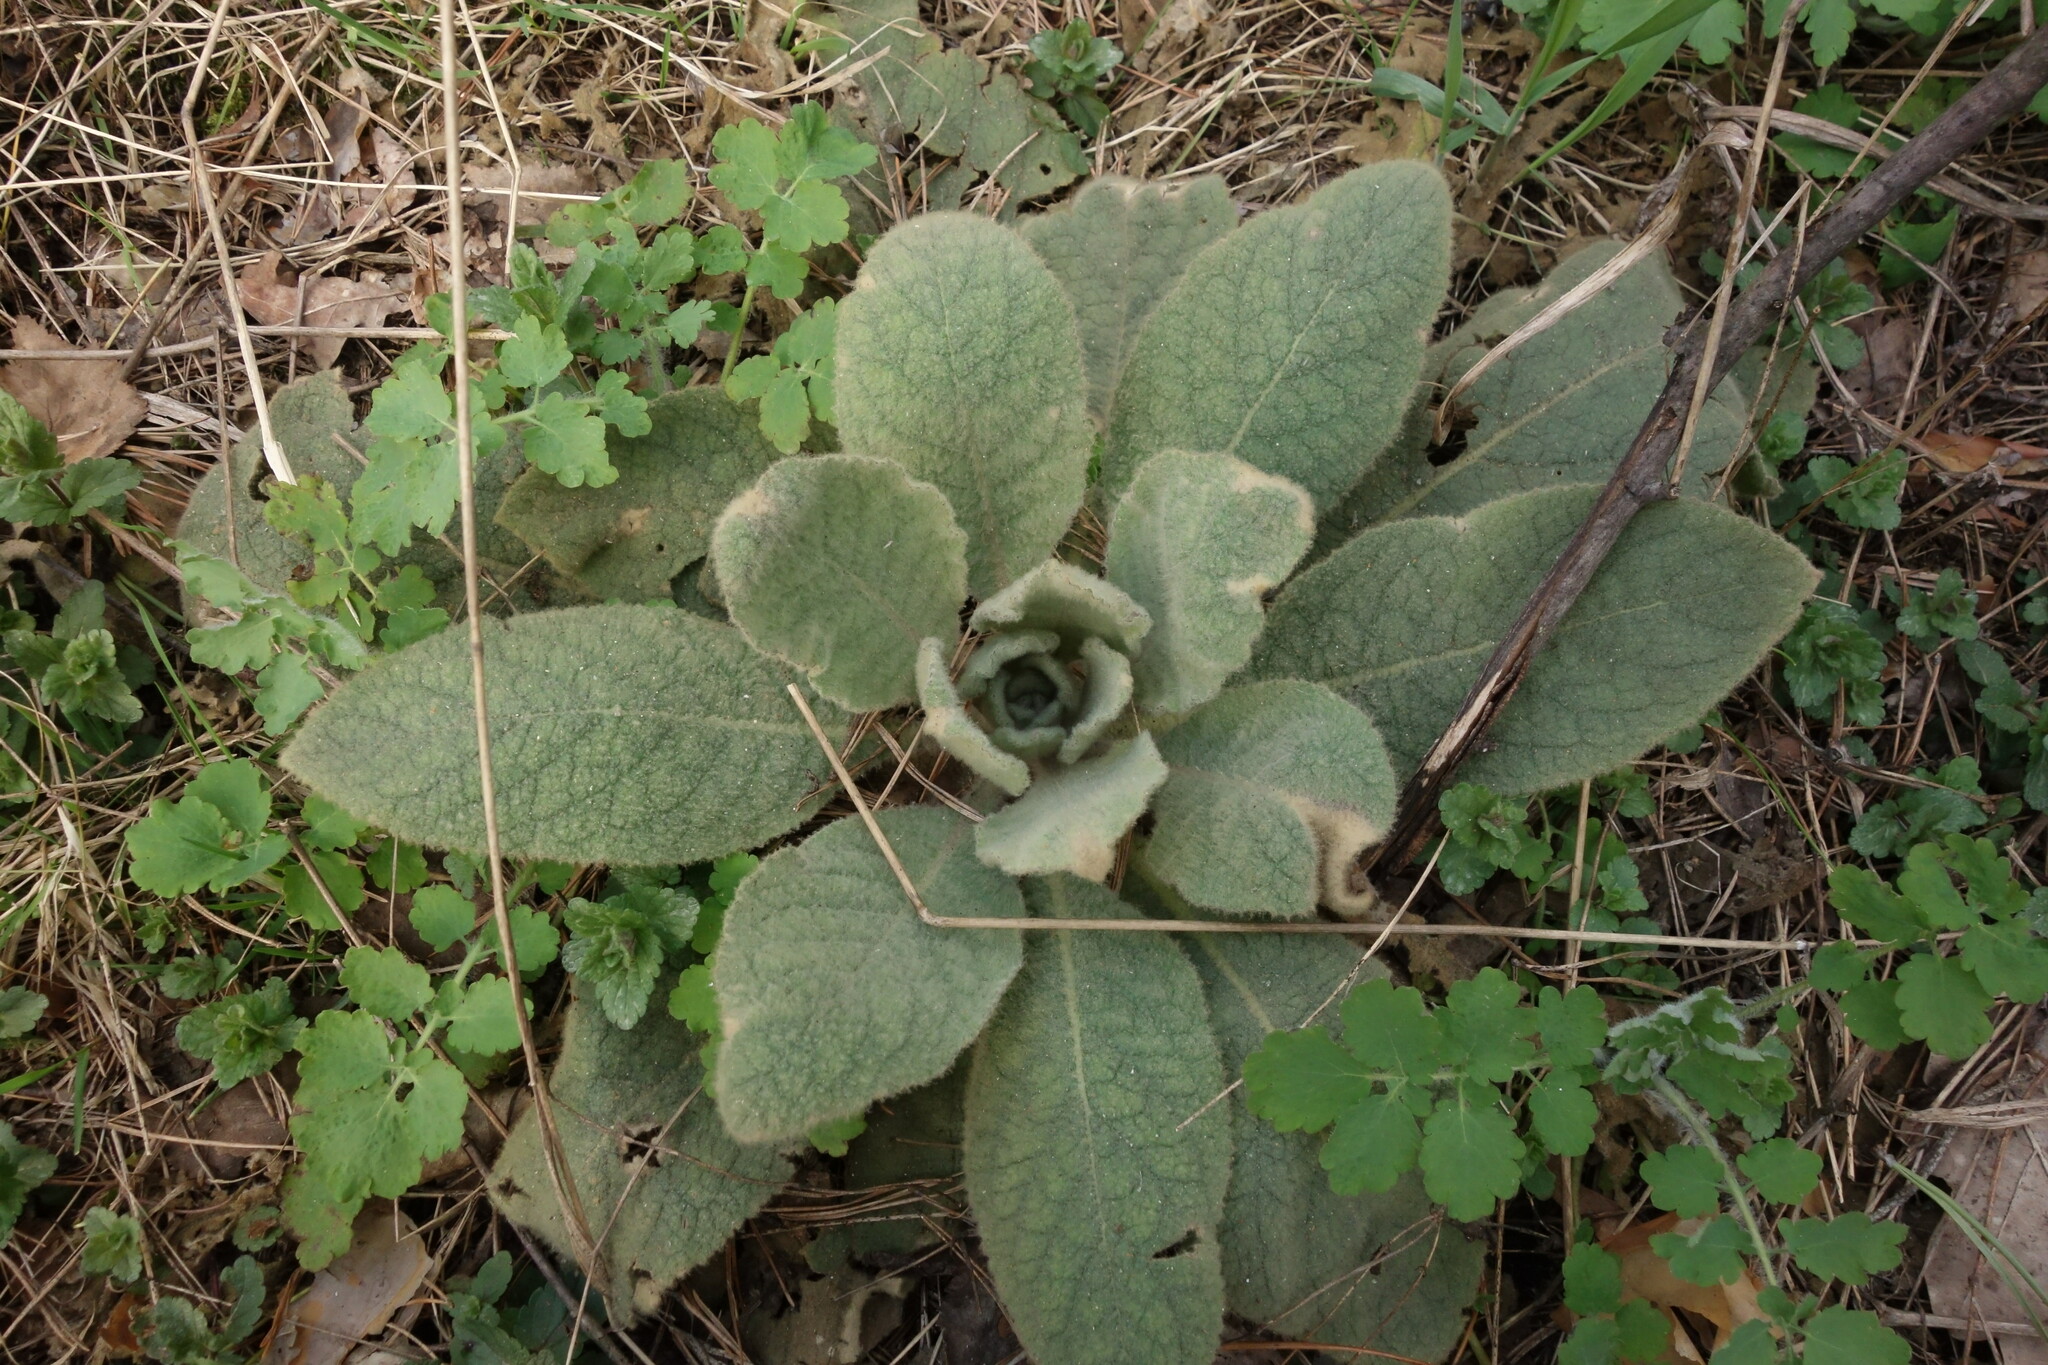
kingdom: Plantae
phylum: Tracheophyta
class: Magnoliopsida
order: Lamiales
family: Scrophulariaceae
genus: Verbascum
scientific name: Verbascum thapsus
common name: Common mullein
